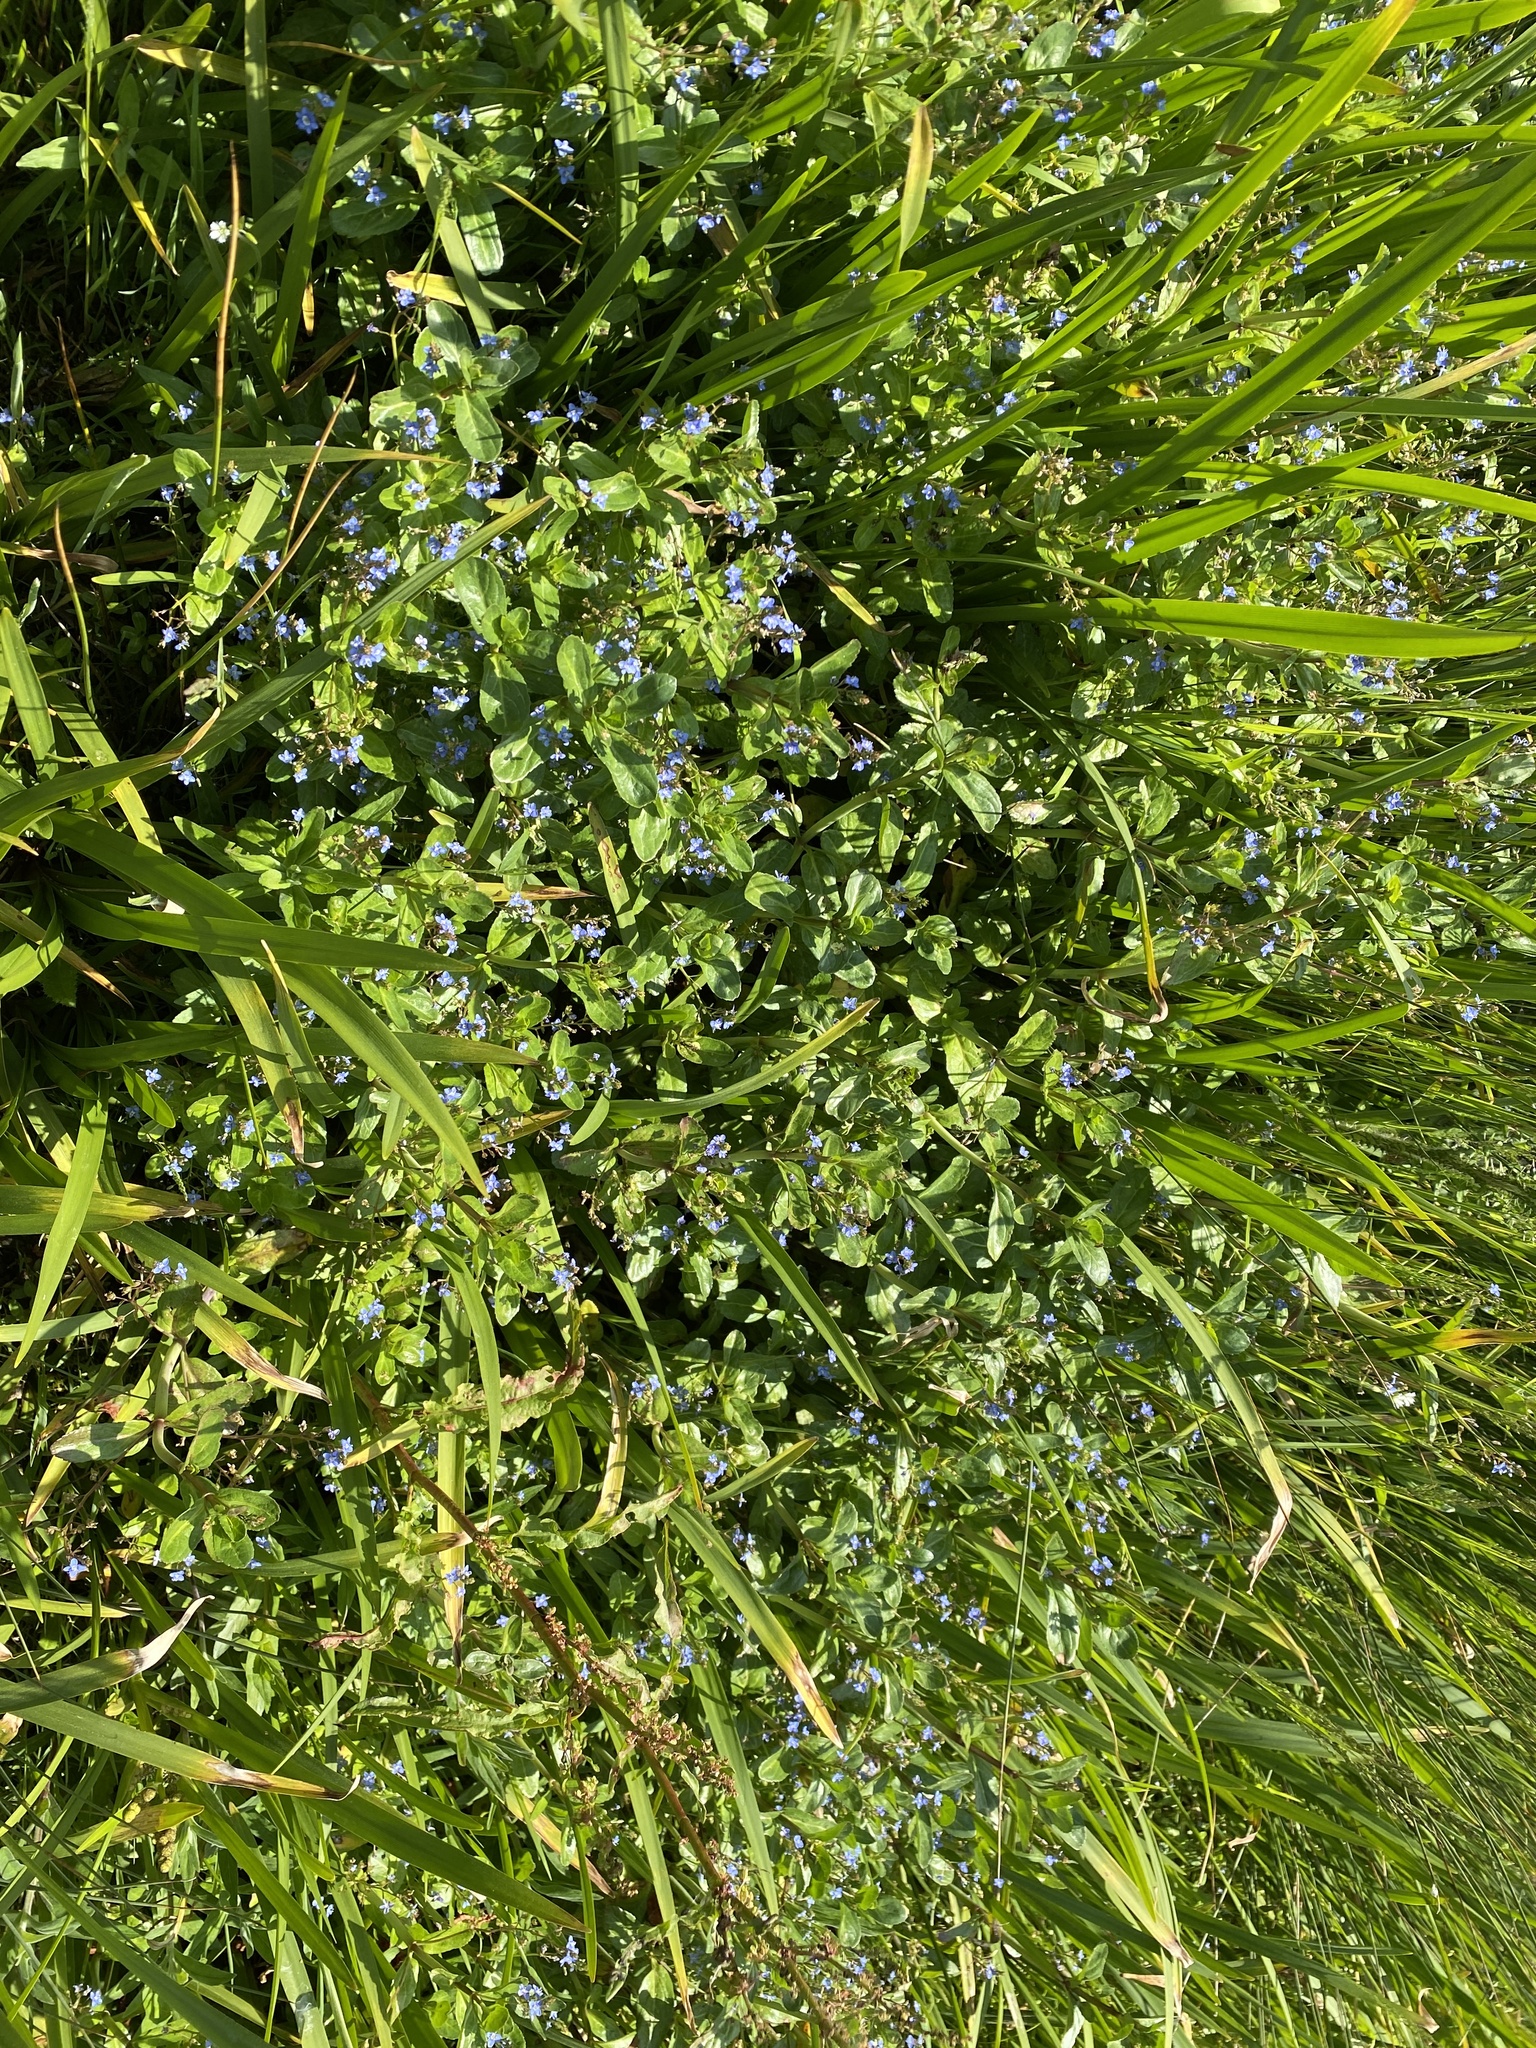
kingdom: Plantae
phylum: Tracheophyta
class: Magnoliopsida
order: Lamiales
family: Plantaginaceae
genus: Veronica
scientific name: Veronica beccabunga
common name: Brooklime
